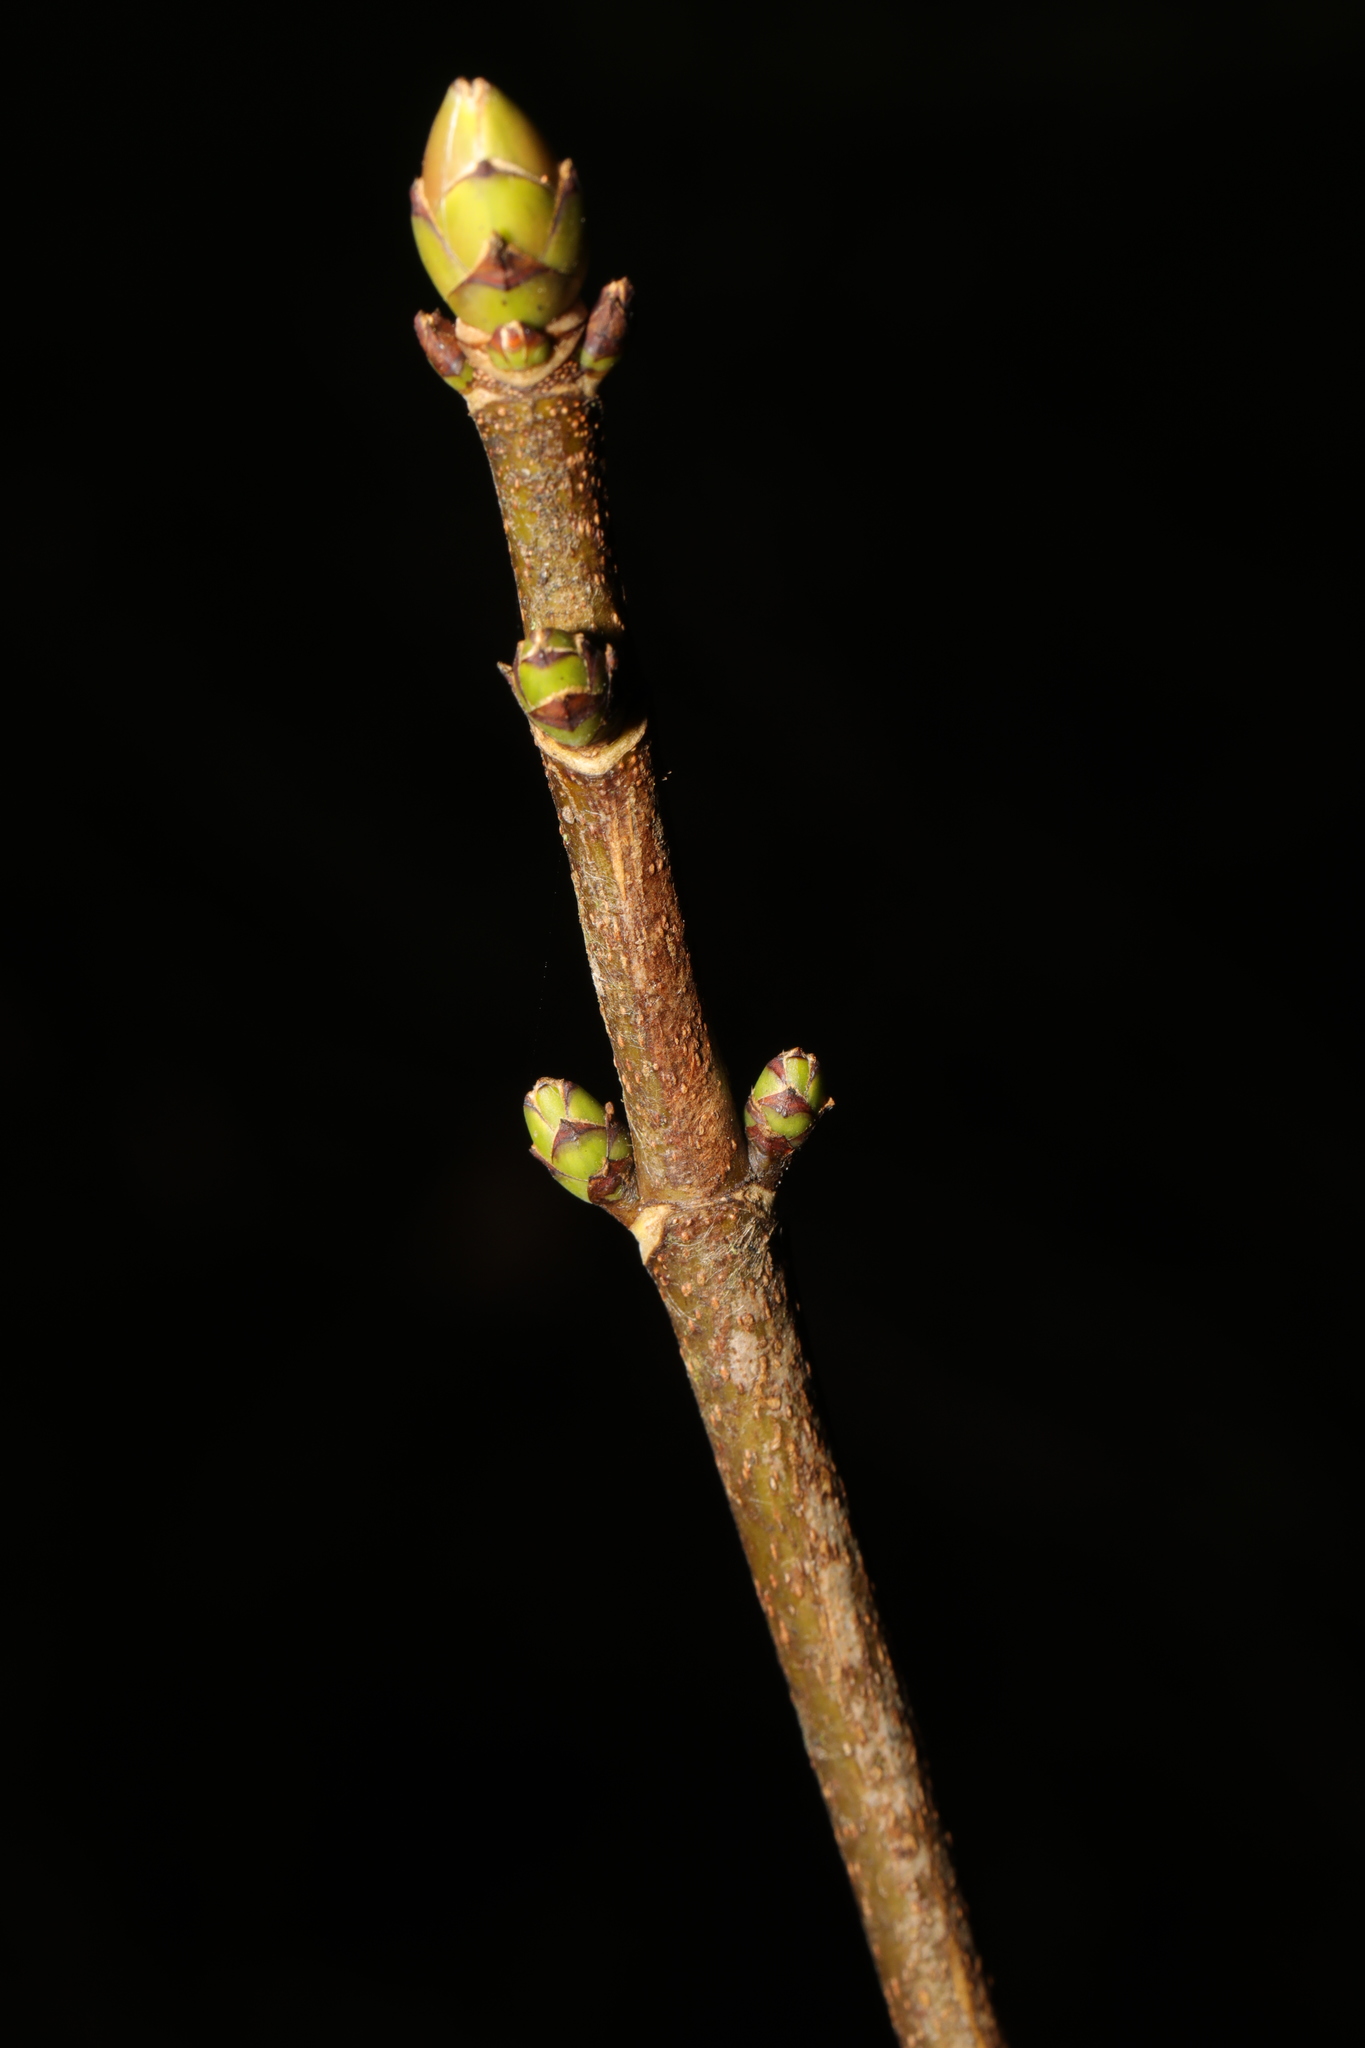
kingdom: Plantae
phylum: Tracheophyta
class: Magnoliopsida
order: Sapindales
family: Sapindaceae
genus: Acer
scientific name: Acer pseudoplatanus
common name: Sycamore
